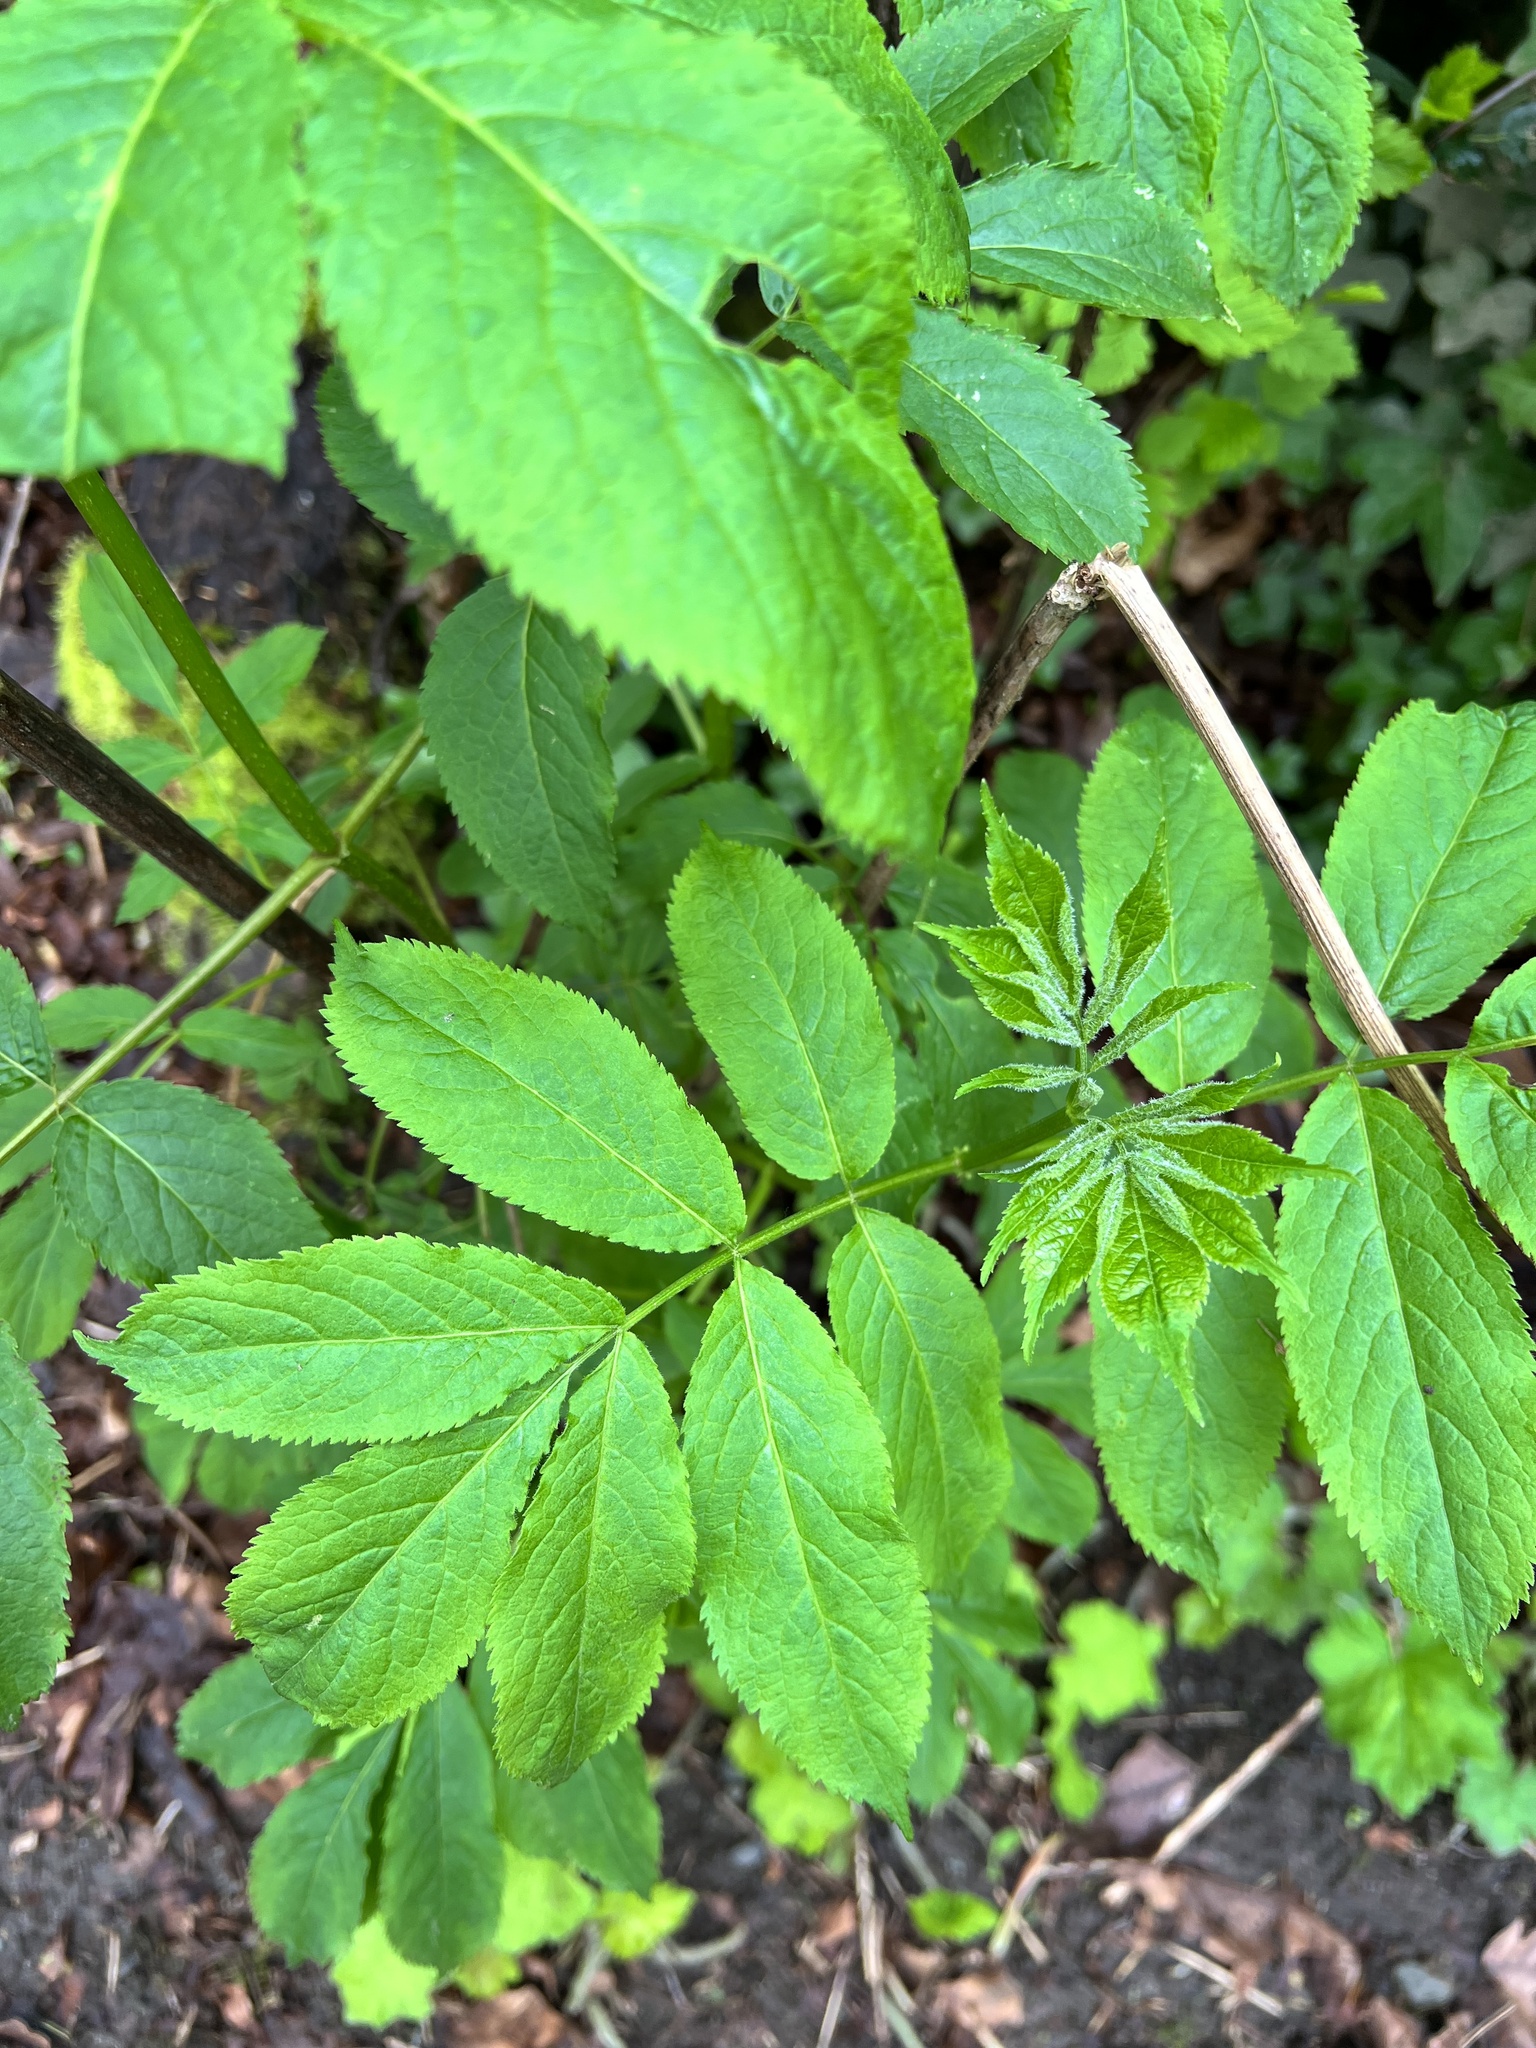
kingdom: Plantae
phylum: Tracheophyta
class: Magnoliopsida
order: Dipsacales
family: Viburnaceae
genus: Sambucus
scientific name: Sambucus racemosa
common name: Red-berried elder
